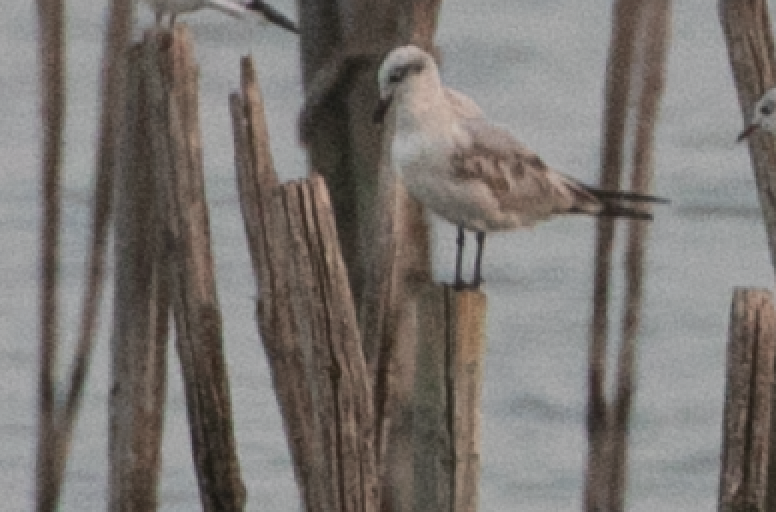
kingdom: Animalia
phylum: Chordata
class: Aves
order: Charadriiformes
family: Laridae
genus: Ichthyaetus
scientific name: Ichthyaetus melanocephalus
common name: Mediterranean gull
